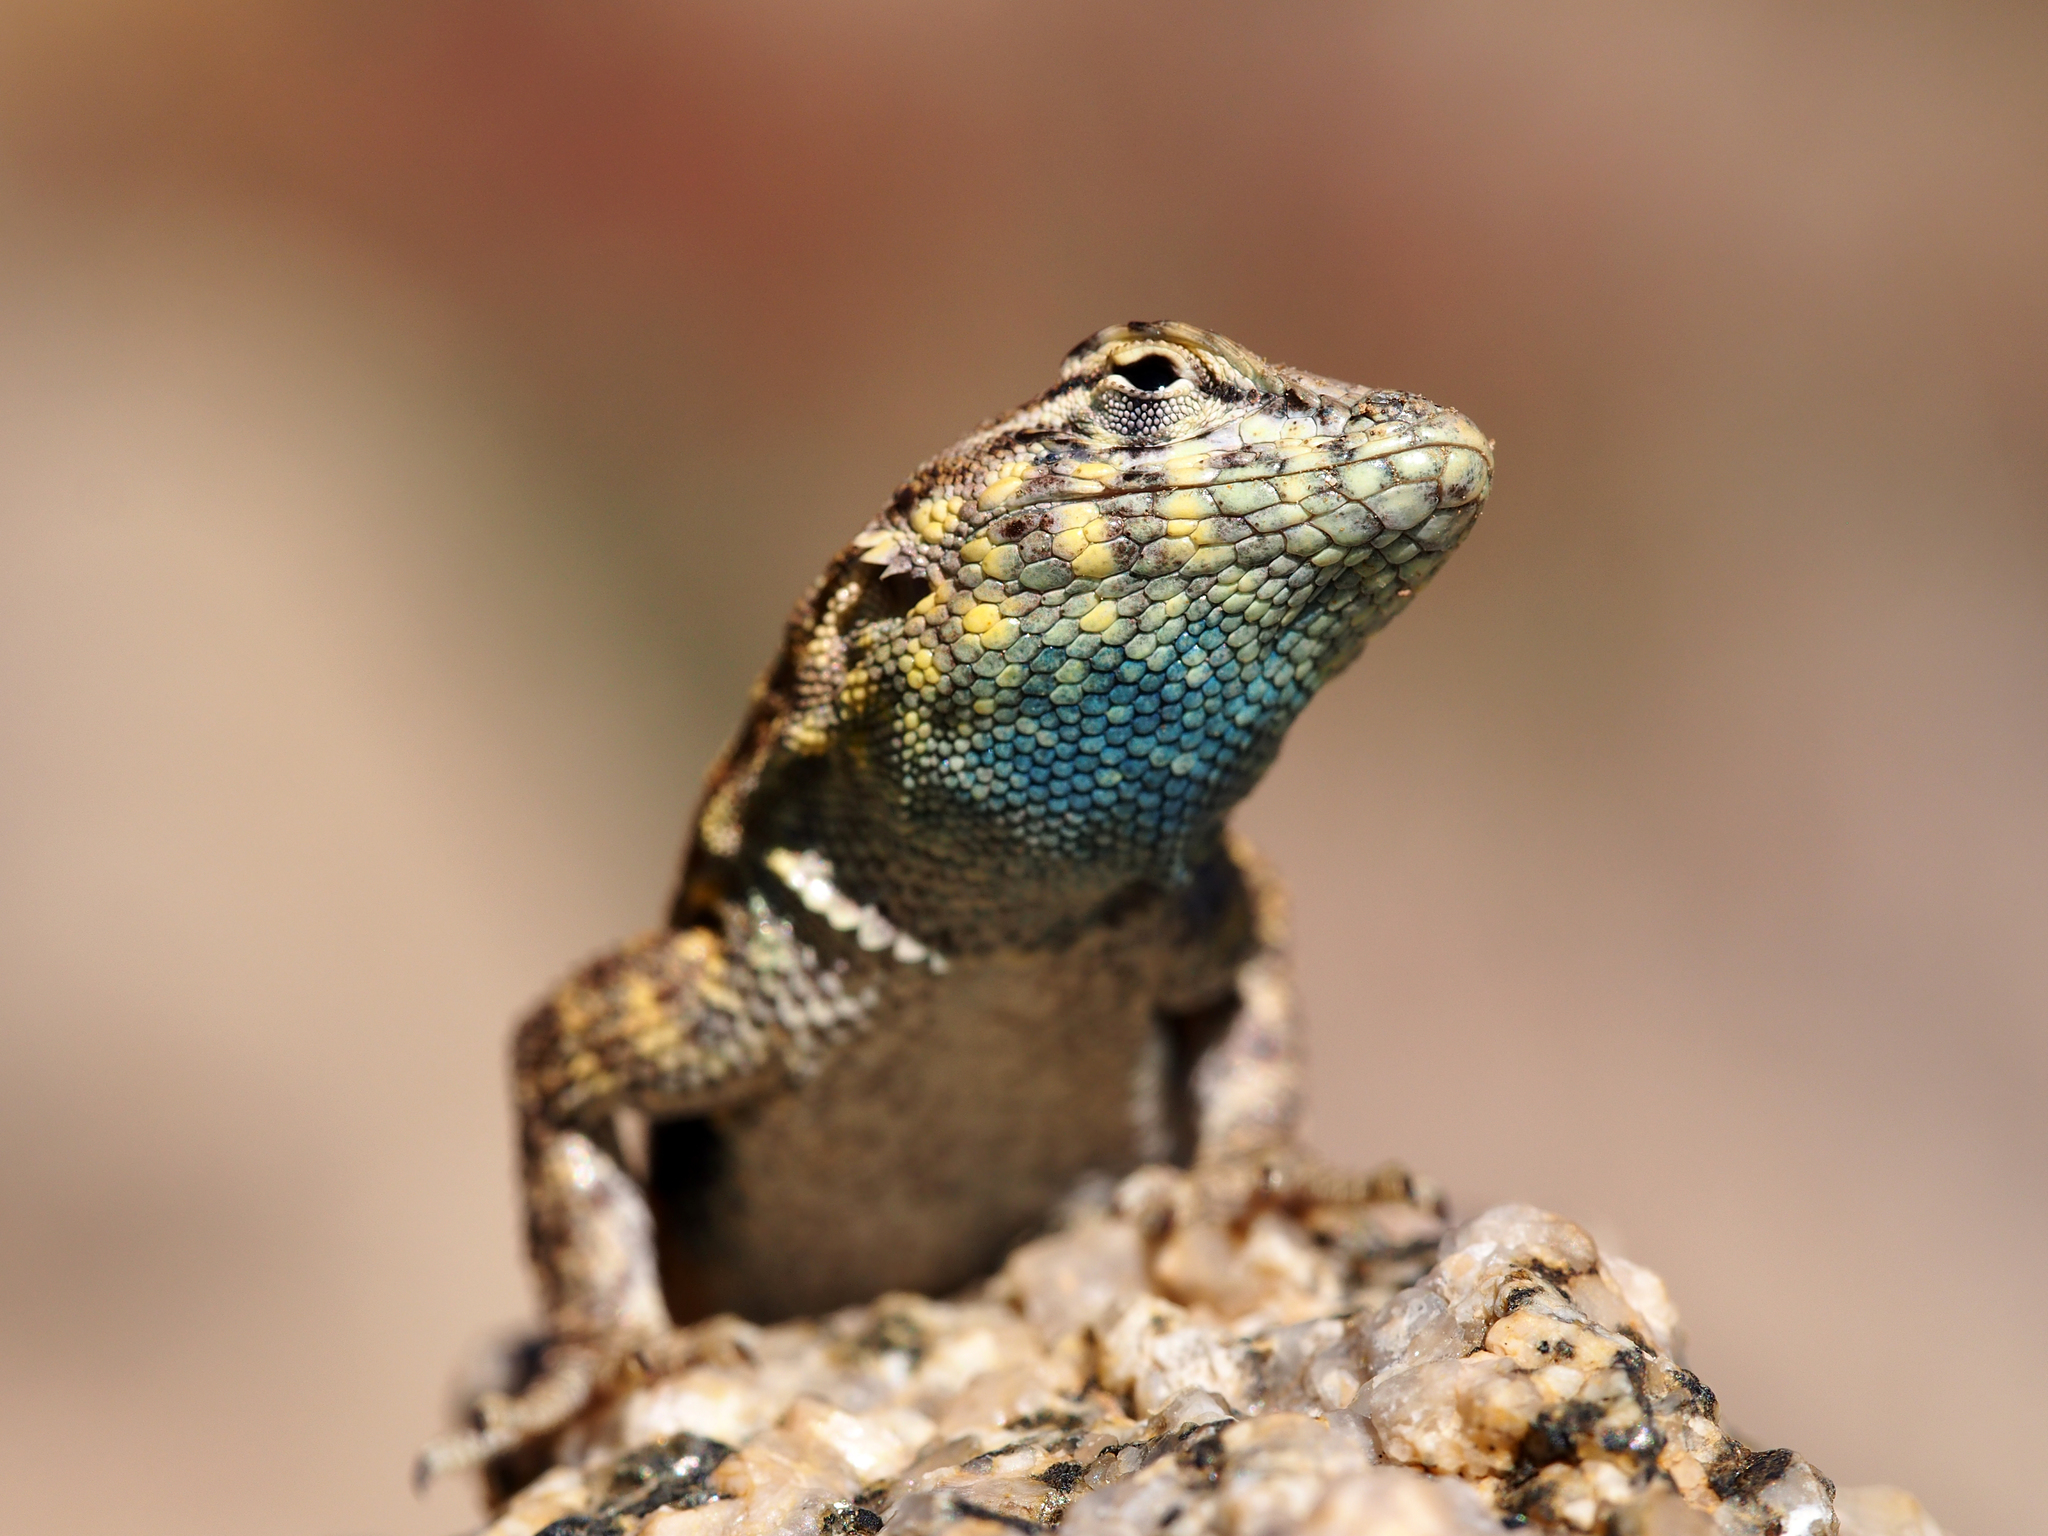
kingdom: Animalia
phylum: Chordata
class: Squamata
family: Phrynosomatidae
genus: Uta
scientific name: Uta stansburiana
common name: Side-blotched lizard
